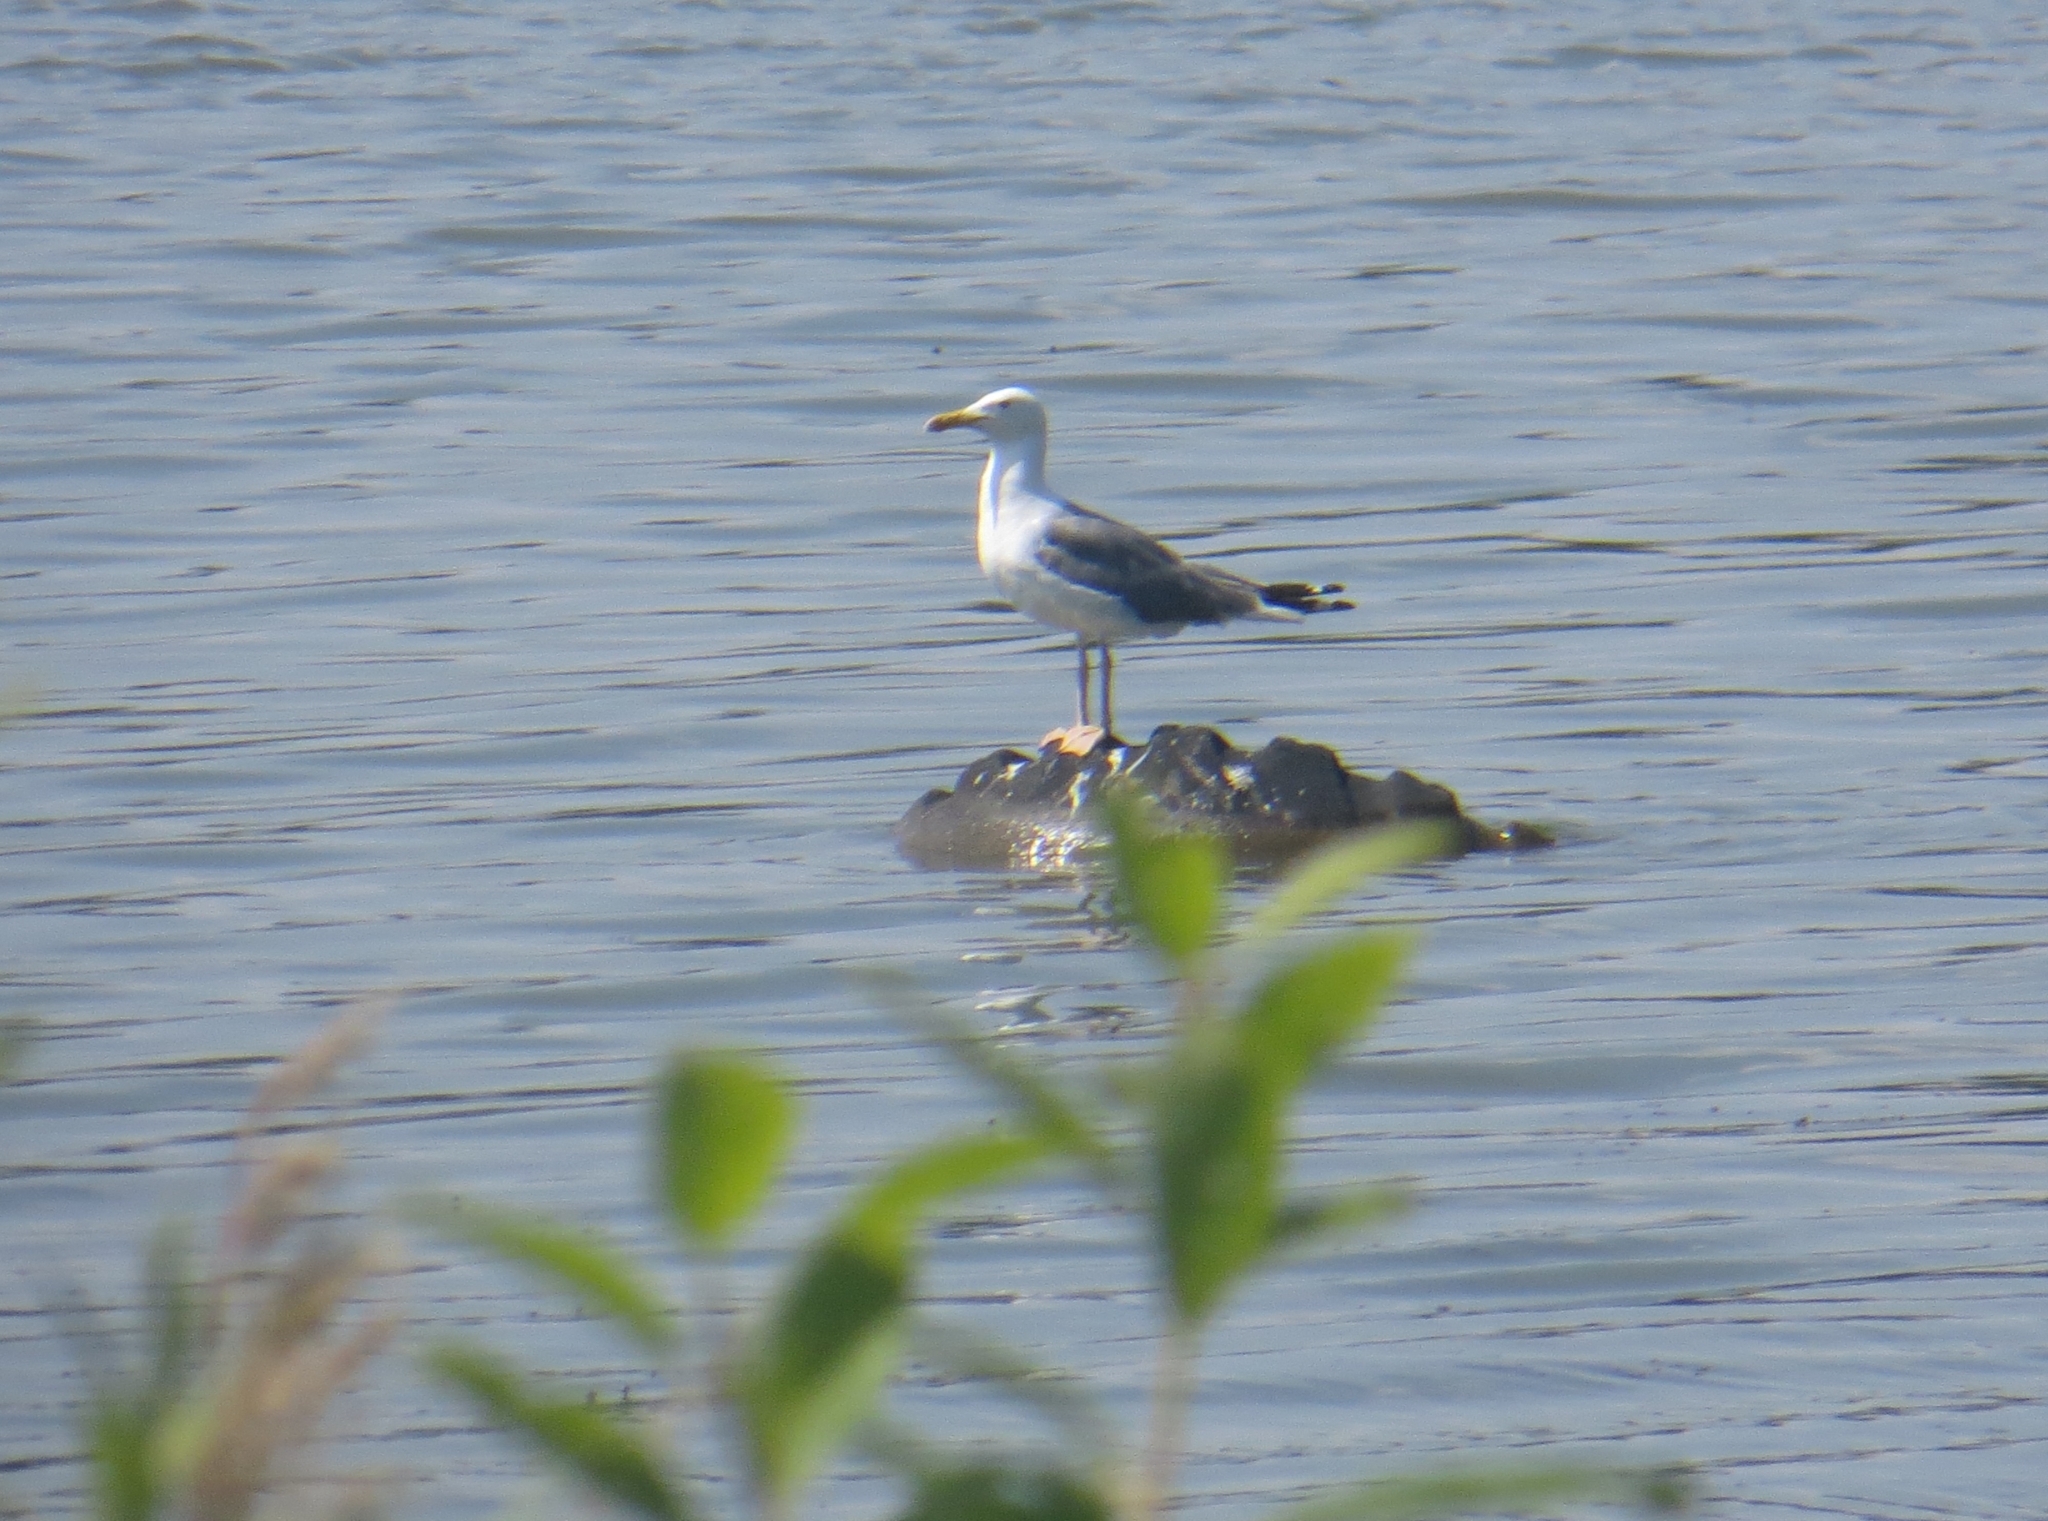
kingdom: Animalia
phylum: Chordata
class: Aves
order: Charadriiformes
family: Laridae
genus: Larus
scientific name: Larus fuscus
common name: Lesser black-backed gull
